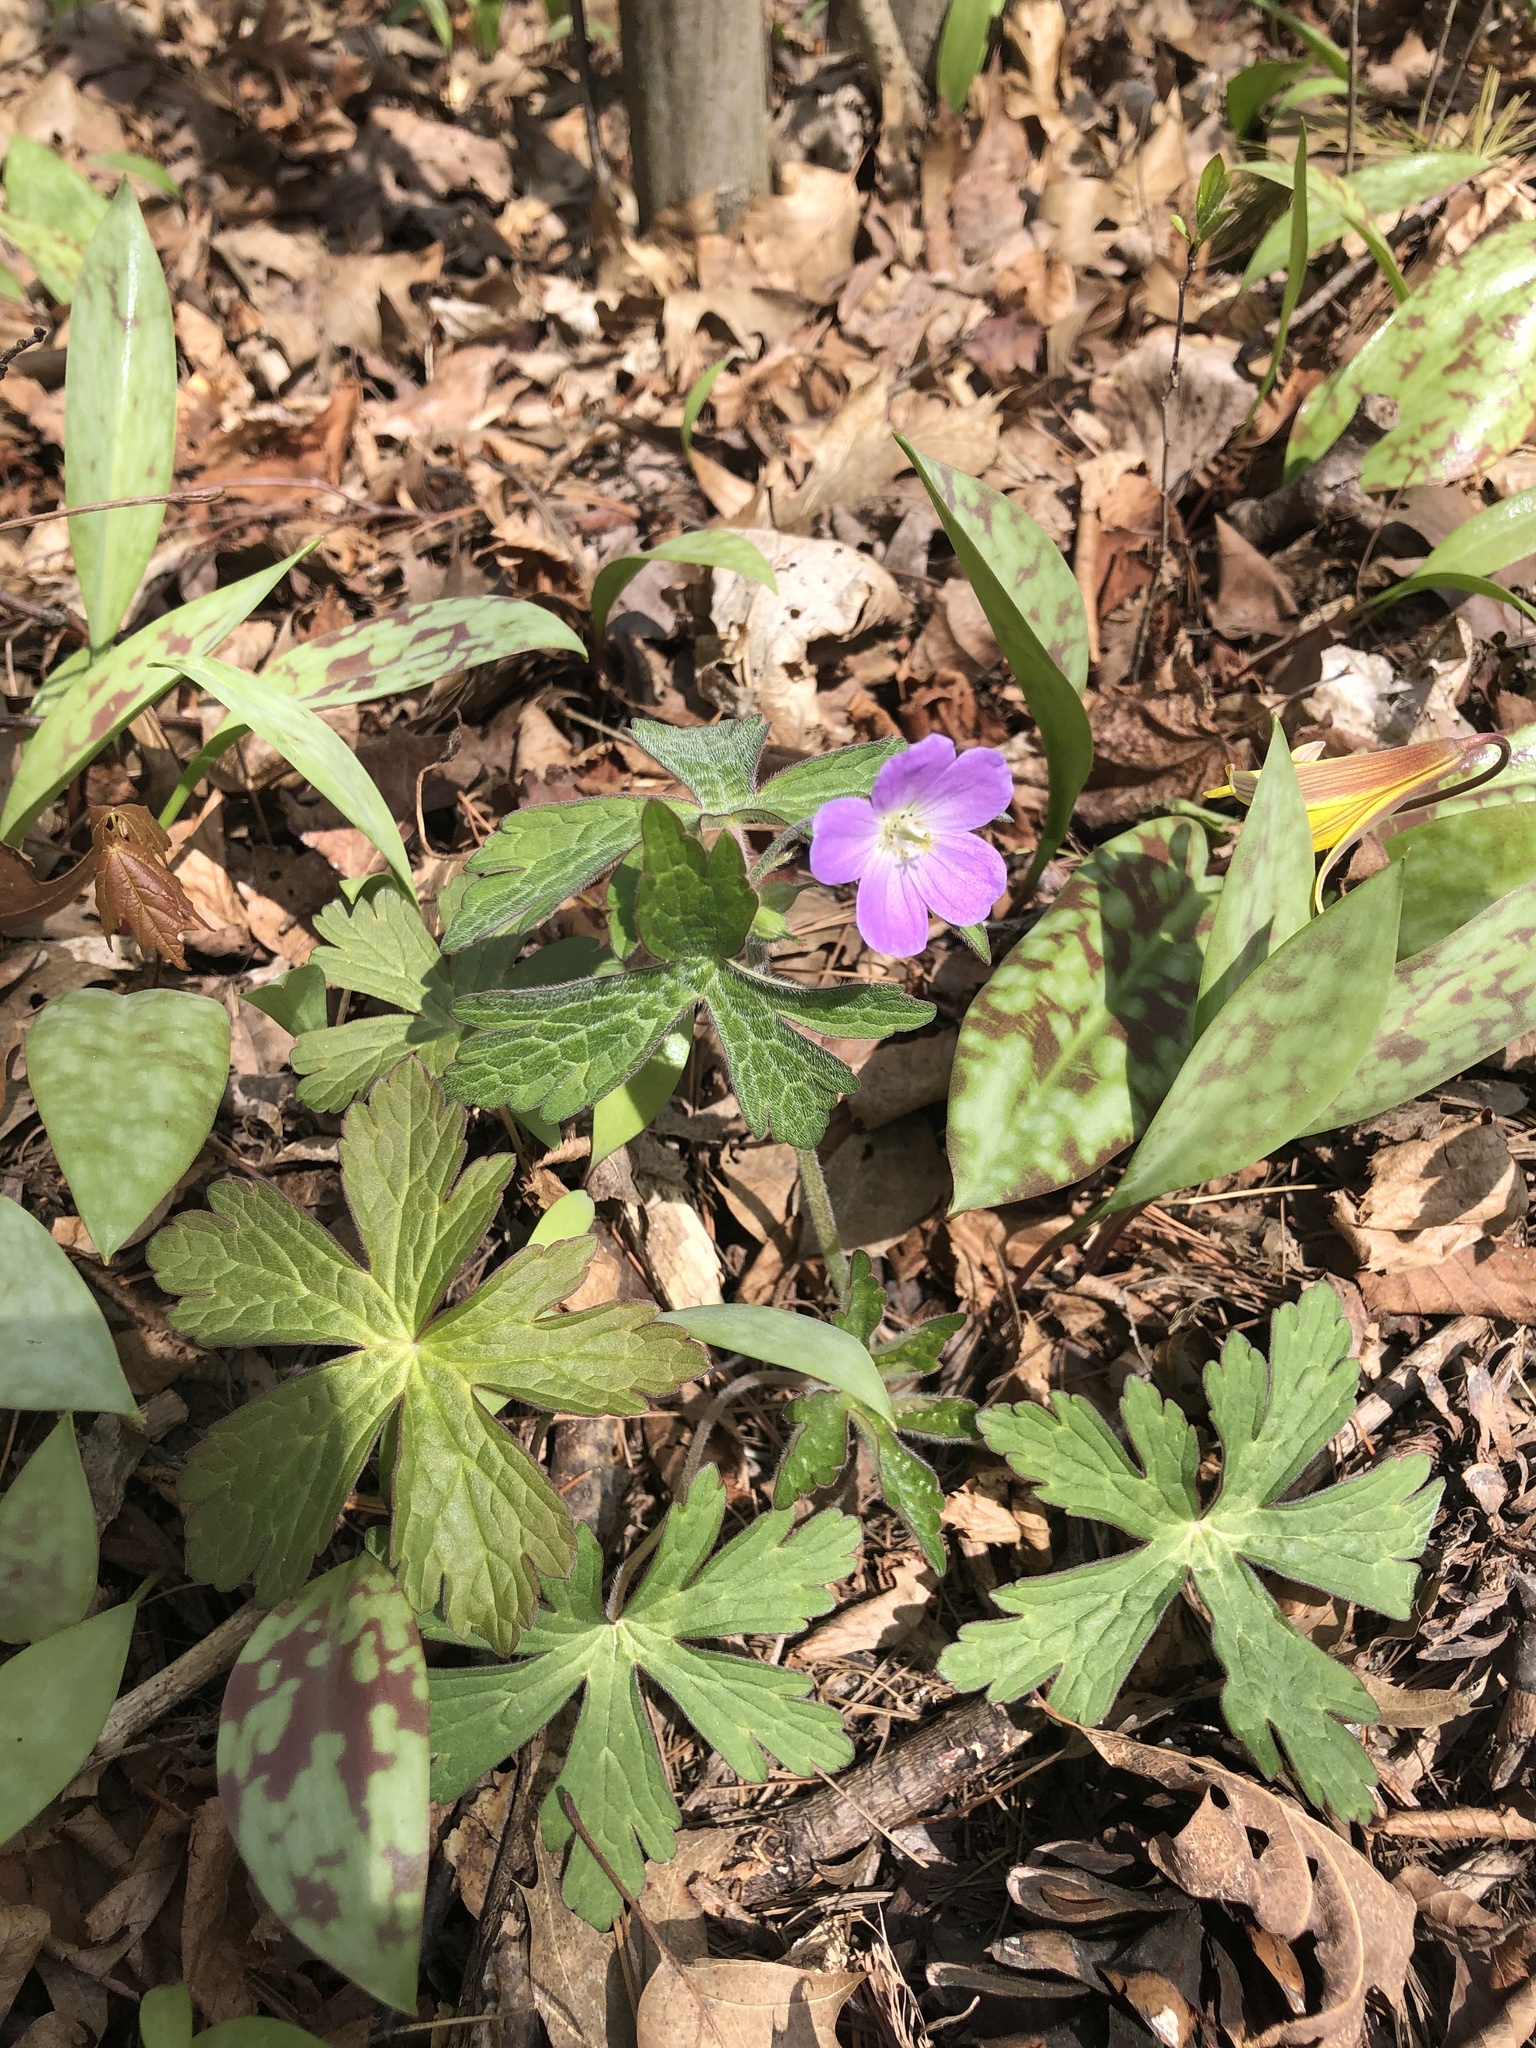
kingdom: Plantae
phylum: Tracheophyta
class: Magnoliopsida
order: Geraniales
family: Geraniaceae
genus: Geranium
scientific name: Geranium maculatum
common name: Spotted geranium
